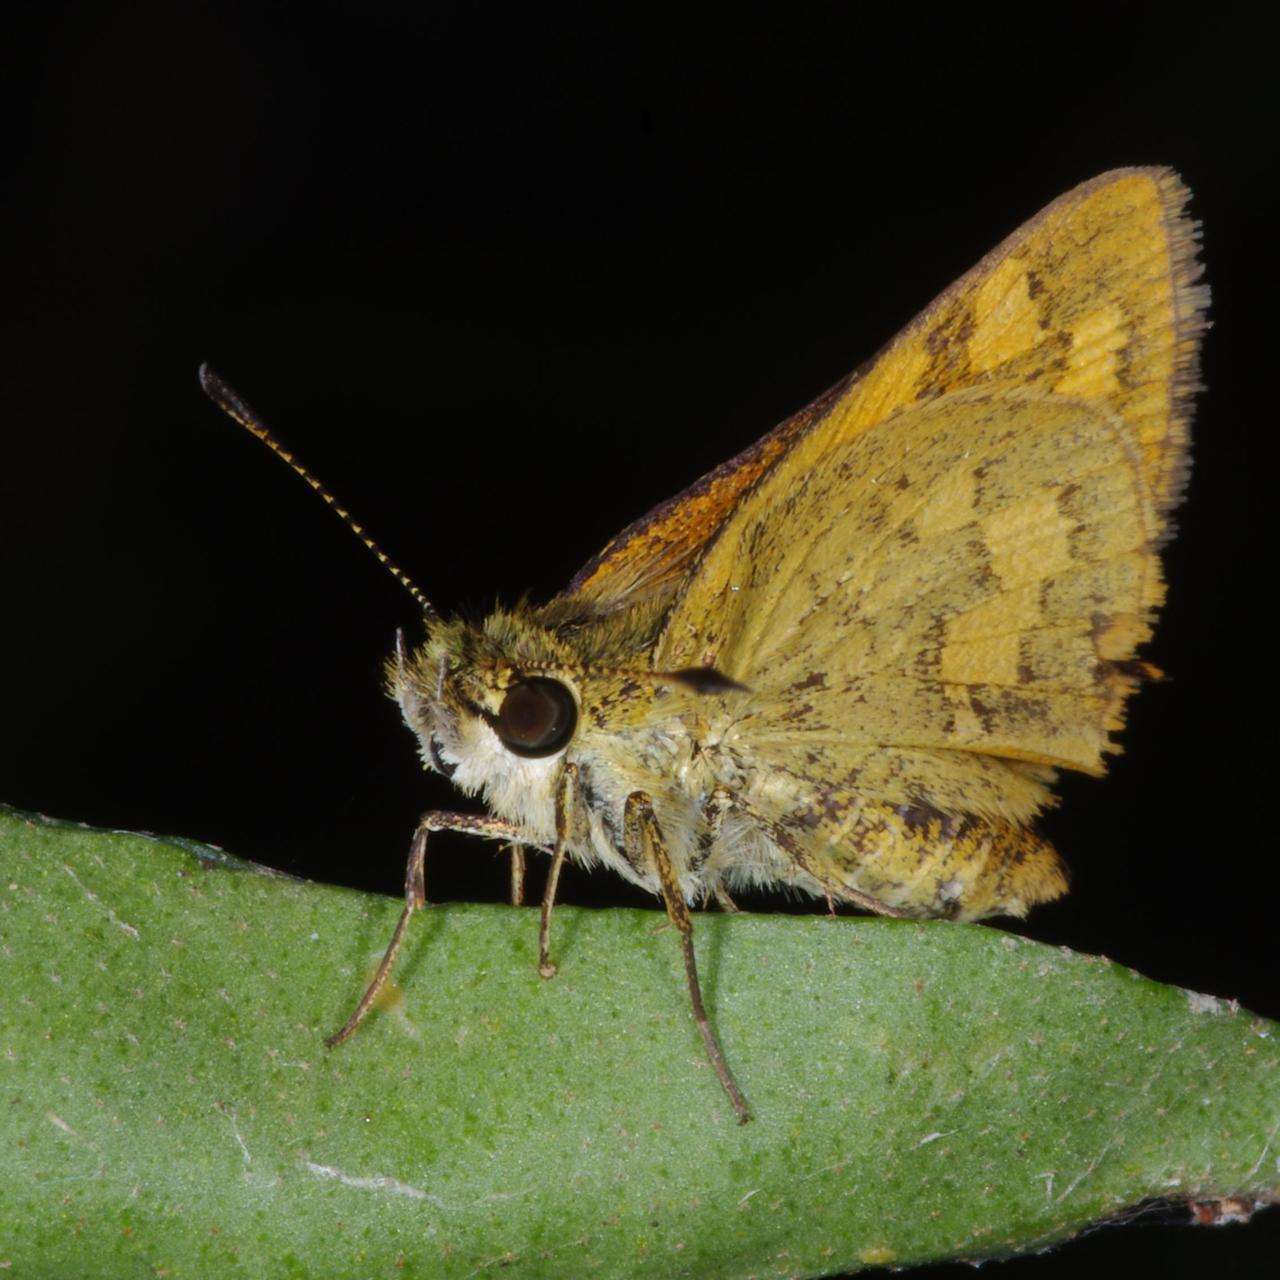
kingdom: Animalia
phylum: Arthropoda
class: Insecta
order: Lepidoptera
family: Hesperiidae
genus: Ocybadistes
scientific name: Ocybadistes walkeri
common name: Yellow-banded dart
